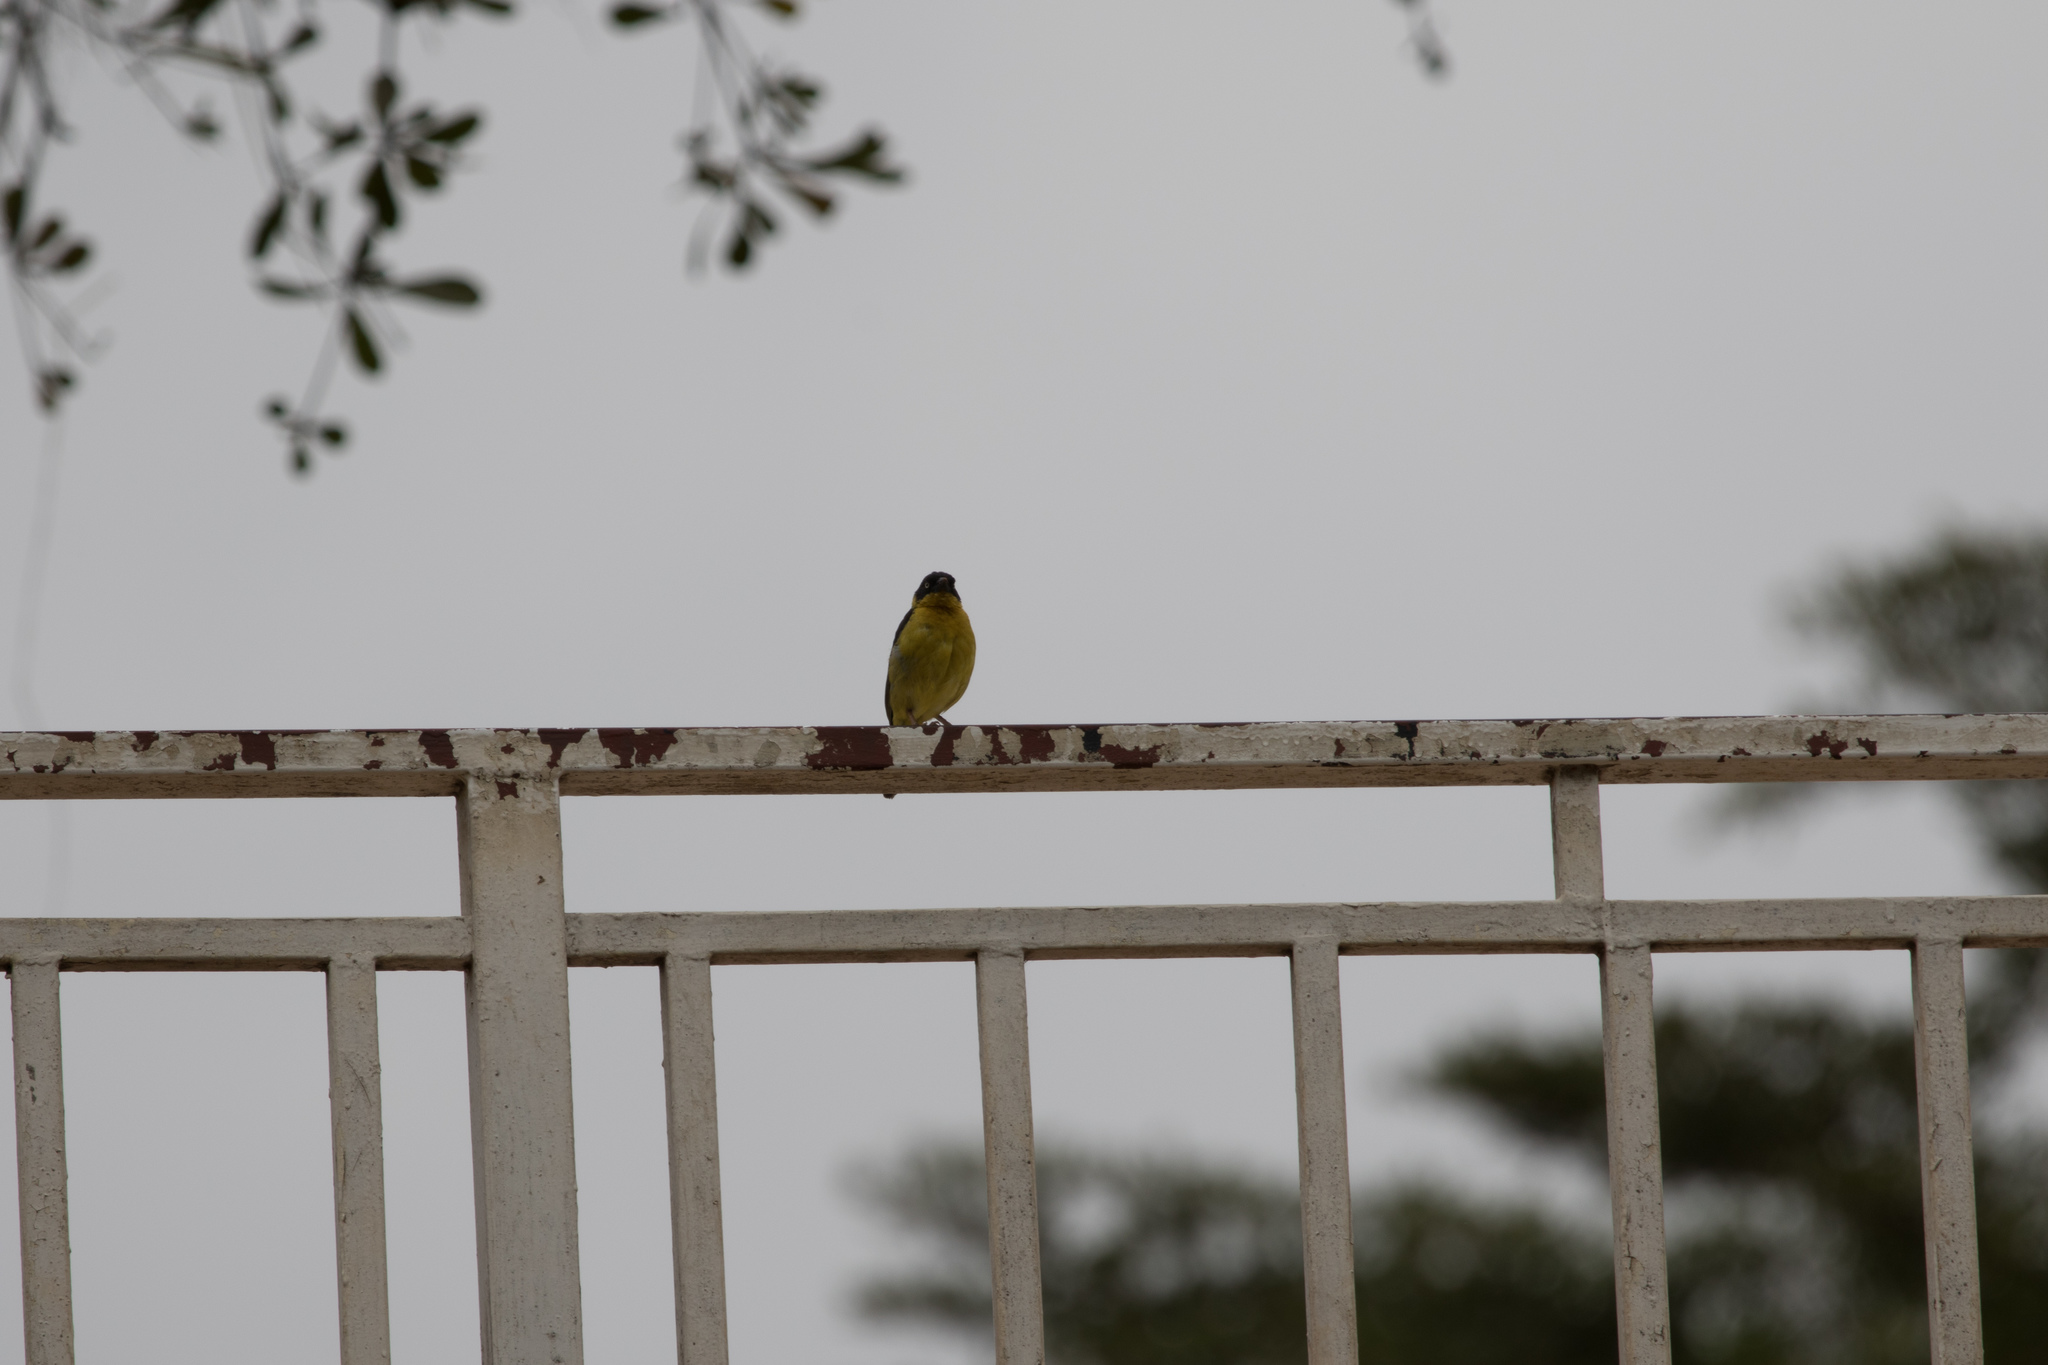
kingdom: Animalia
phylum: Chordata
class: Aves
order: Passeriformes
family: Ploceidae
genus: Ploceus
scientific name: Ploceus baglafecht
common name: Baglafecht weaver
